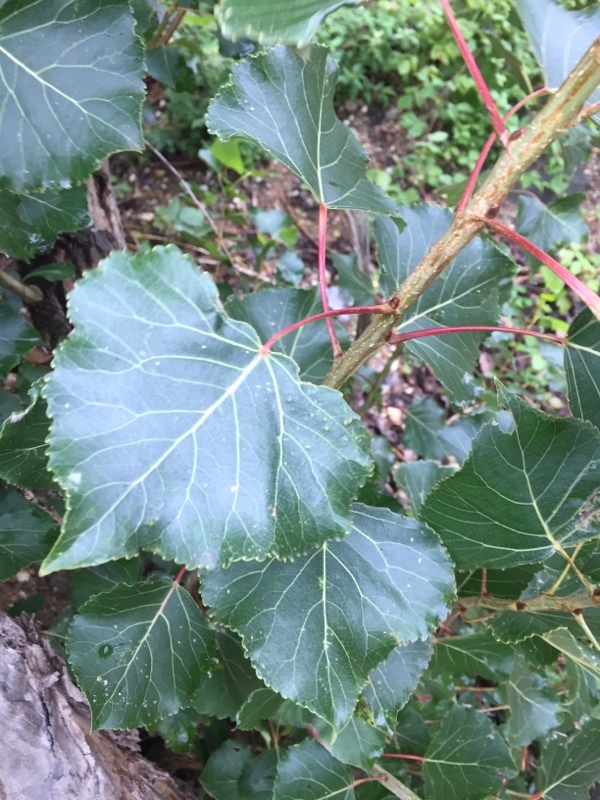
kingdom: Plantae
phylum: Tracheophyta
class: Magnoliopsida
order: Malpighiales
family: Salicaceae
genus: Populus
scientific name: Populus nigra
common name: Black poplar
